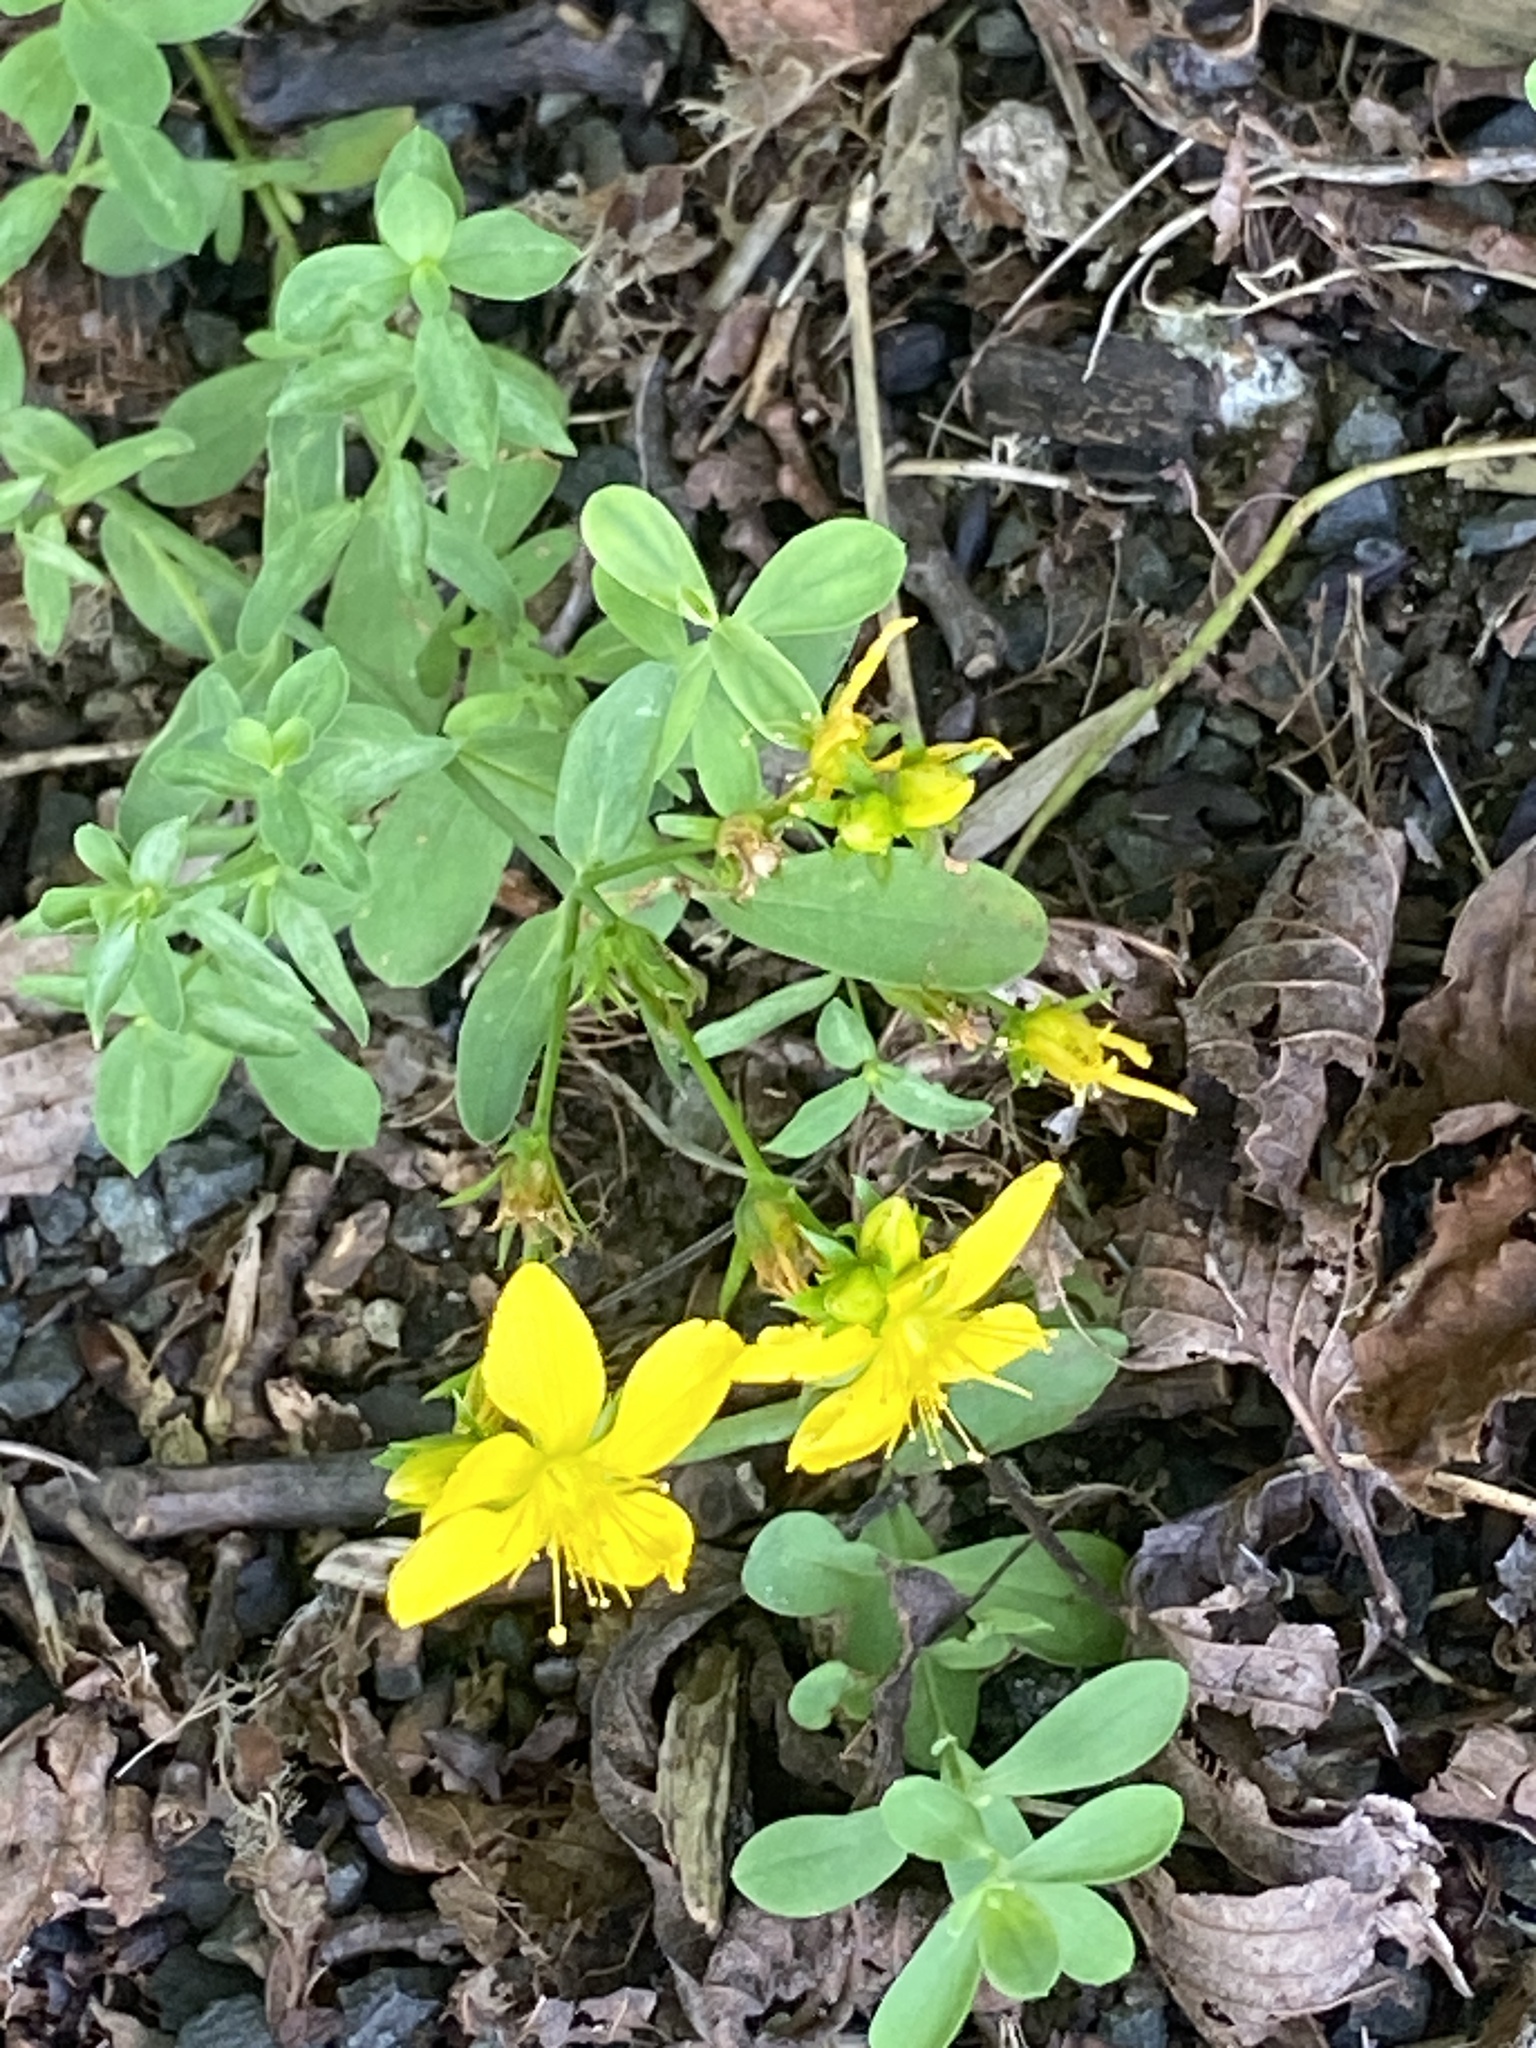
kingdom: Plantae
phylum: Tracheophyta
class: Magnoliopsida
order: Malpighiales
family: Hypericaceae
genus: Hypericum
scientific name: Hypericum perforatum
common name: Common st. johnswort
